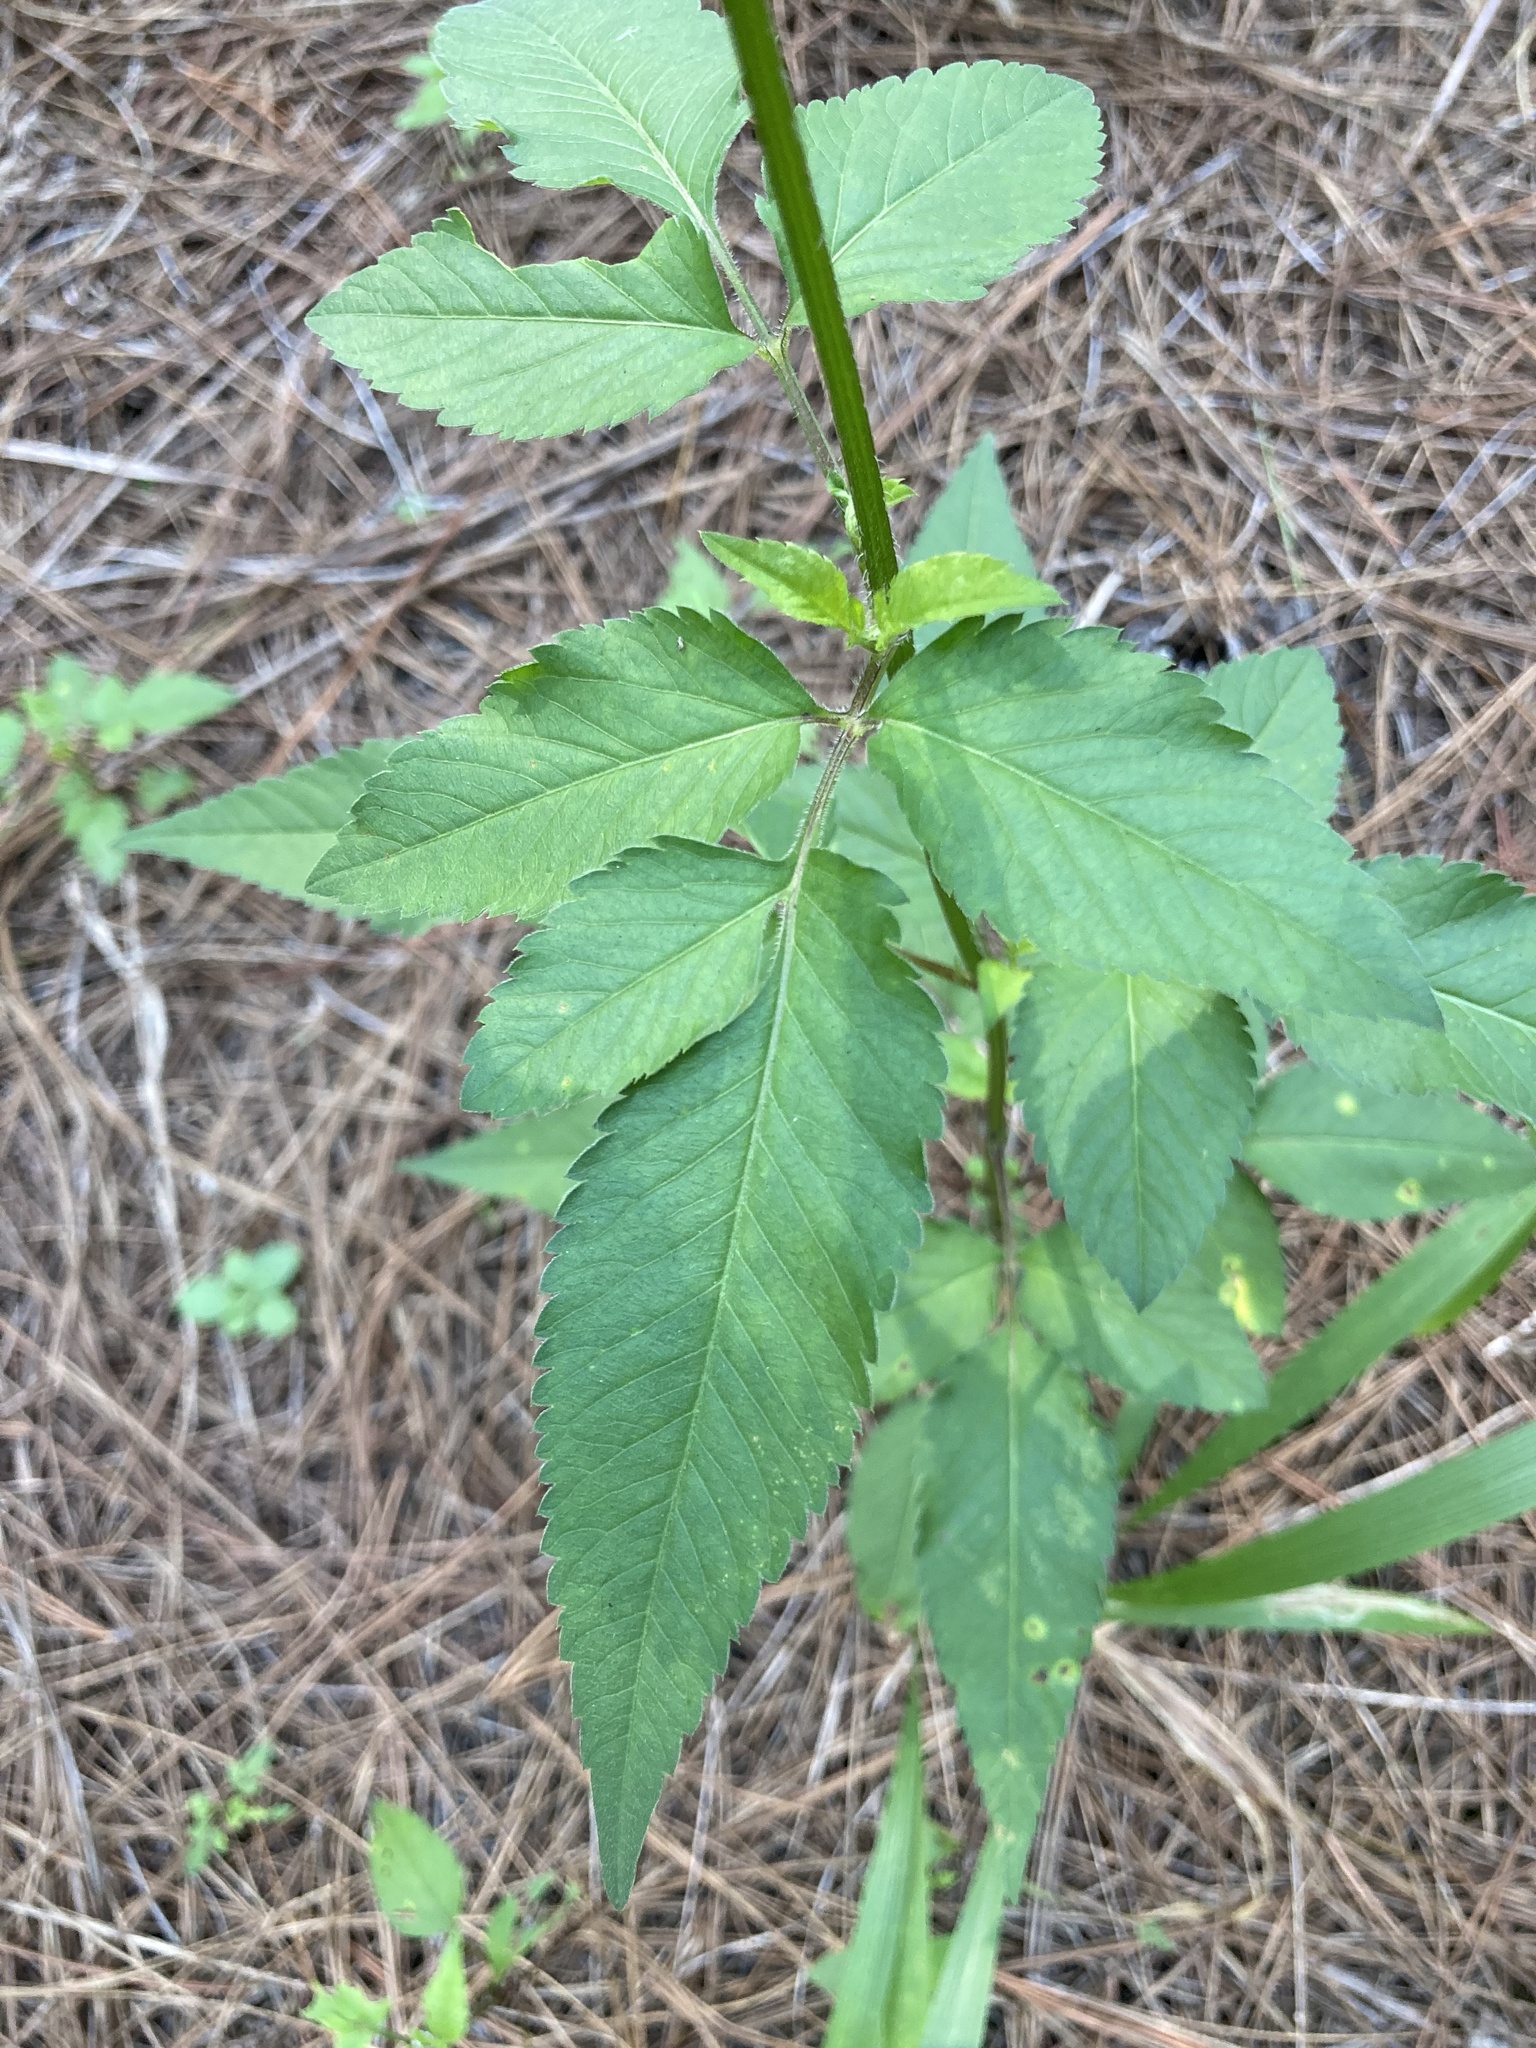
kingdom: Plantae
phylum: Tracheophyta
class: Magnoliopsida
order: Asterales
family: Asteraceae
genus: Bidens
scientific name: Bidens pilosa
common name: Black-jack
